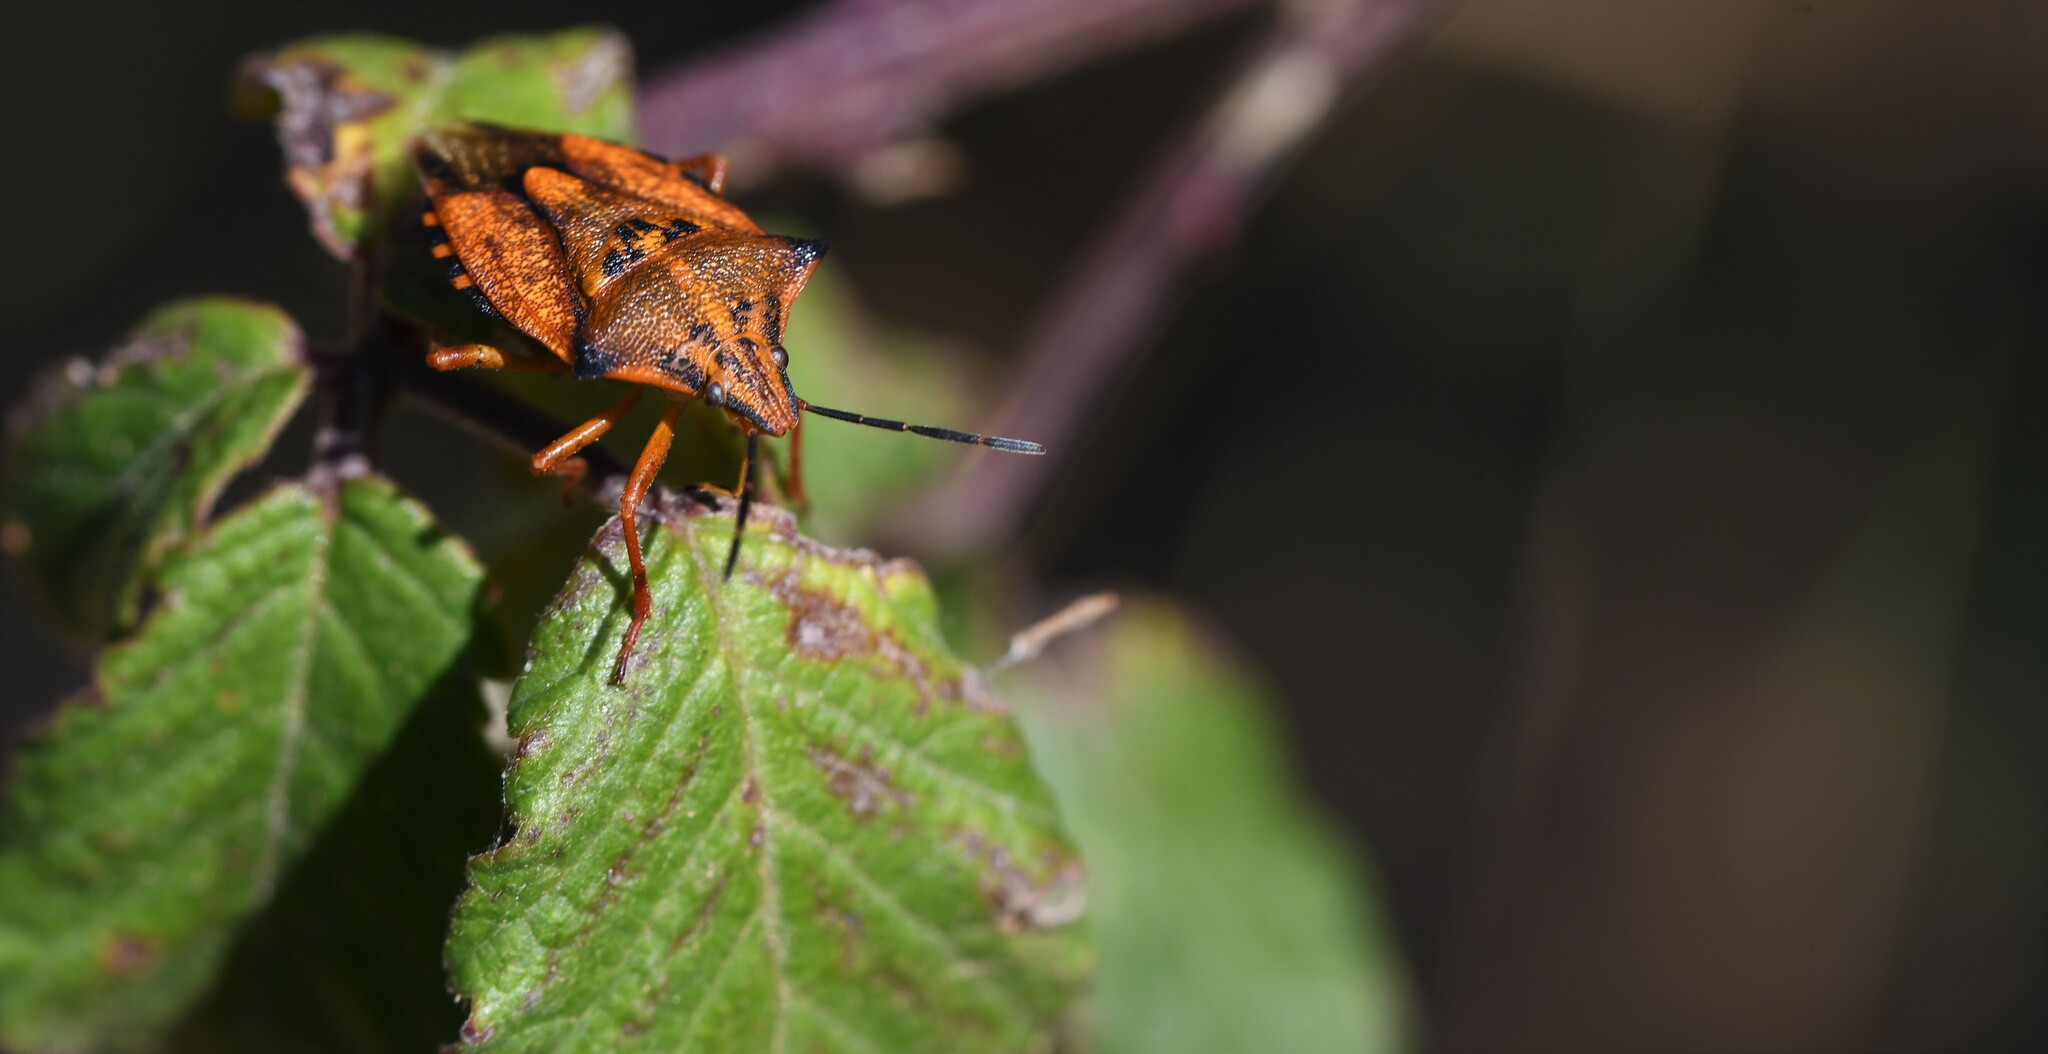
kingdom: Animalia
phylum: Arthropoda
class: Insecta
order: Hemiptera
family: Pentatomidae
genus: Carpocoris
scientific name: Carpocoris mediterraneus
